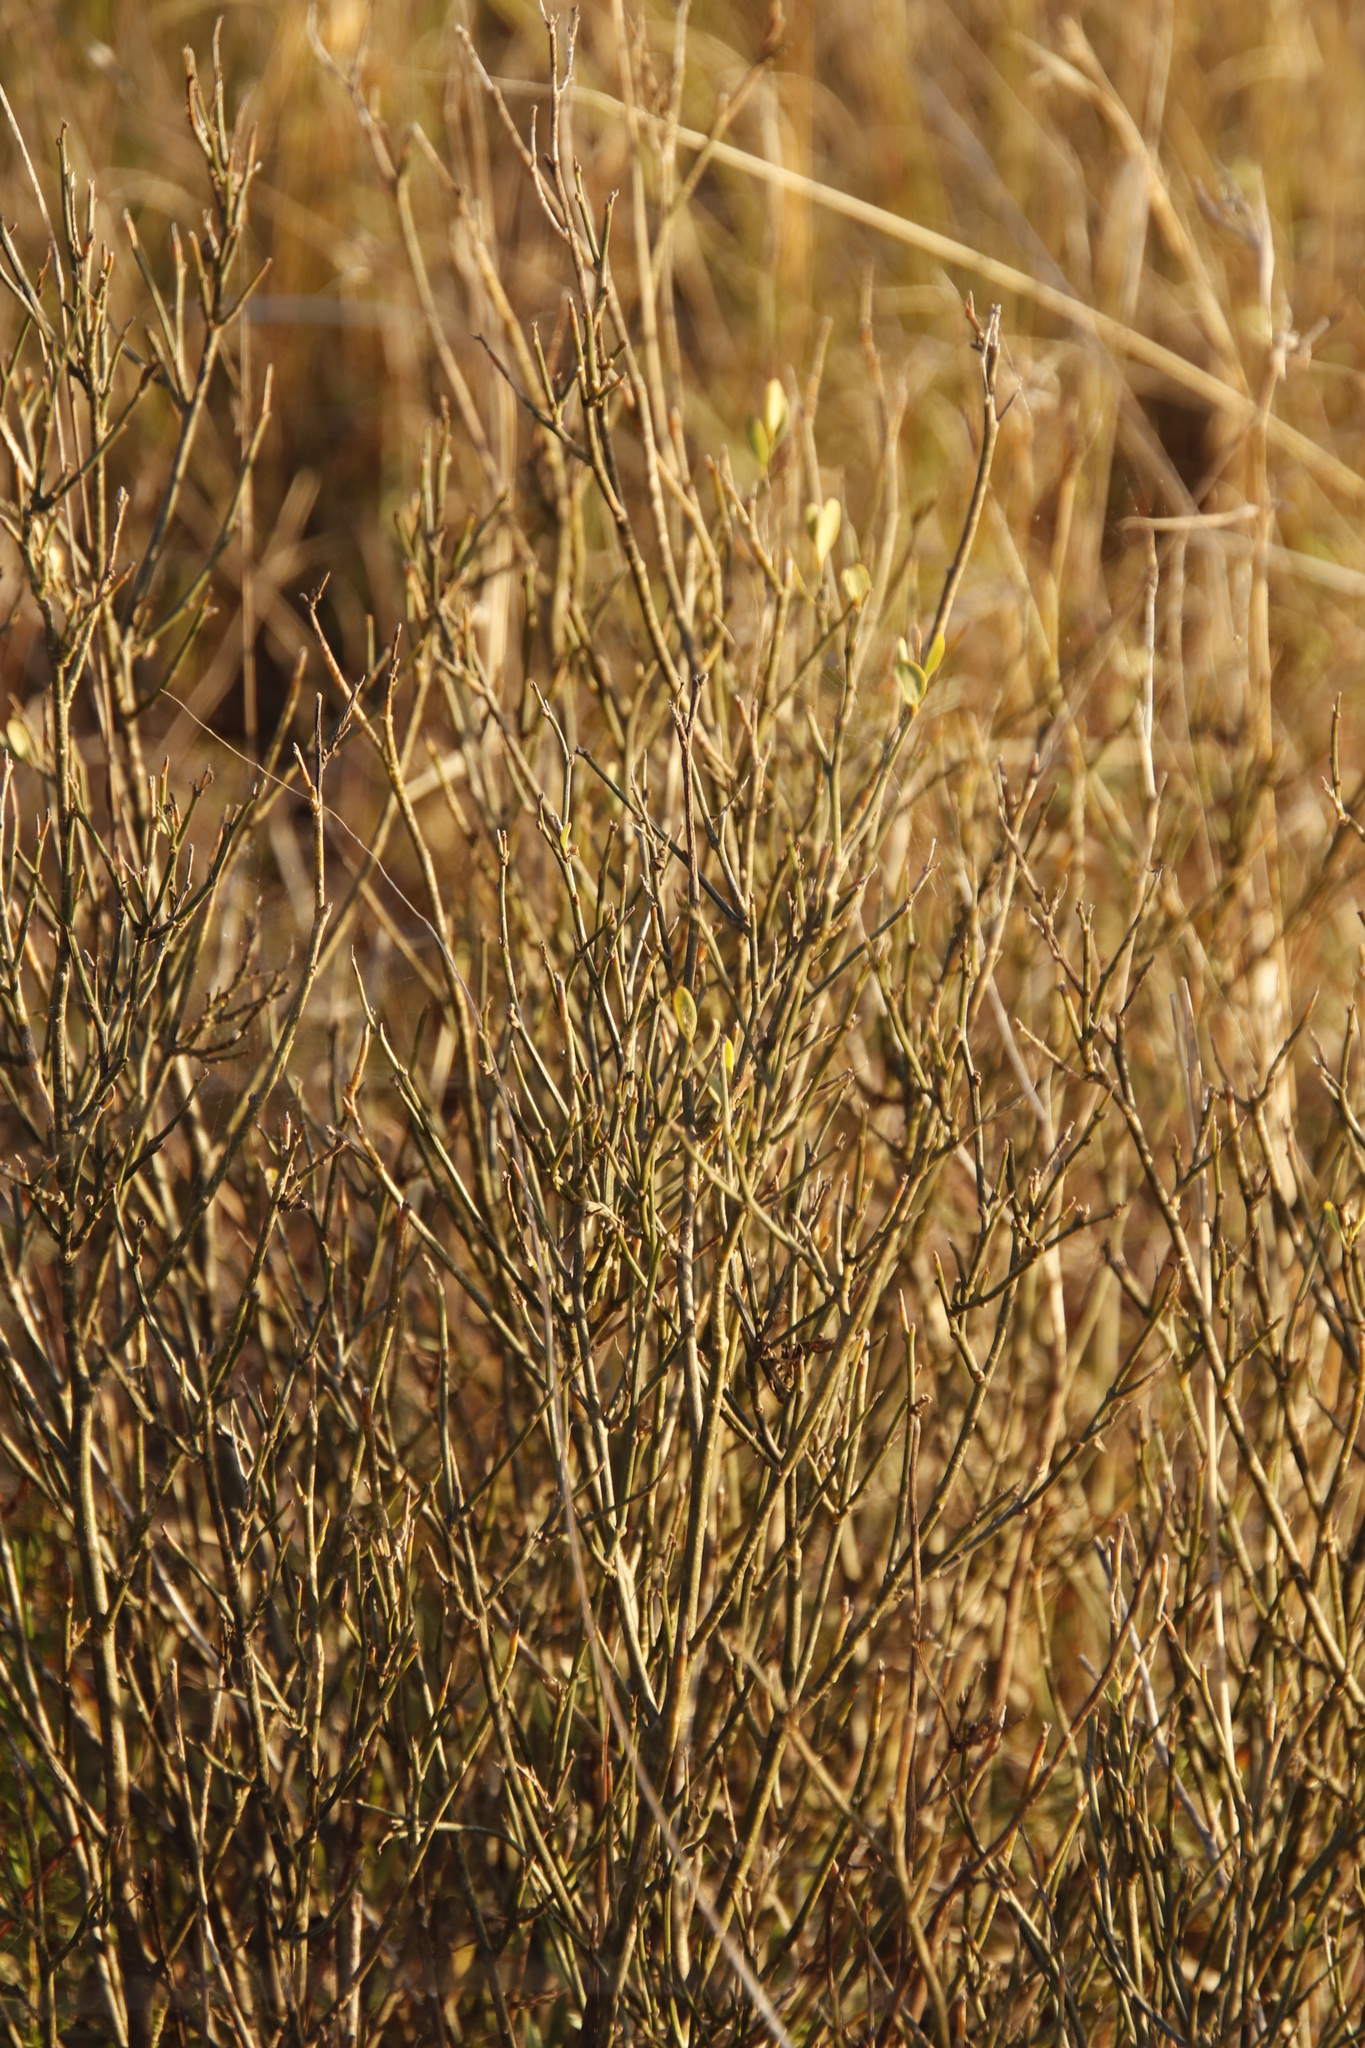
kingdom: Plantae
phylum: Tracheophyta
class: Magnoliopsida
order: Solanales
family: Montiniaceae
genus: Montinia
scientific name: Montinia caryophyllacea
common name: Wild clove-bush
